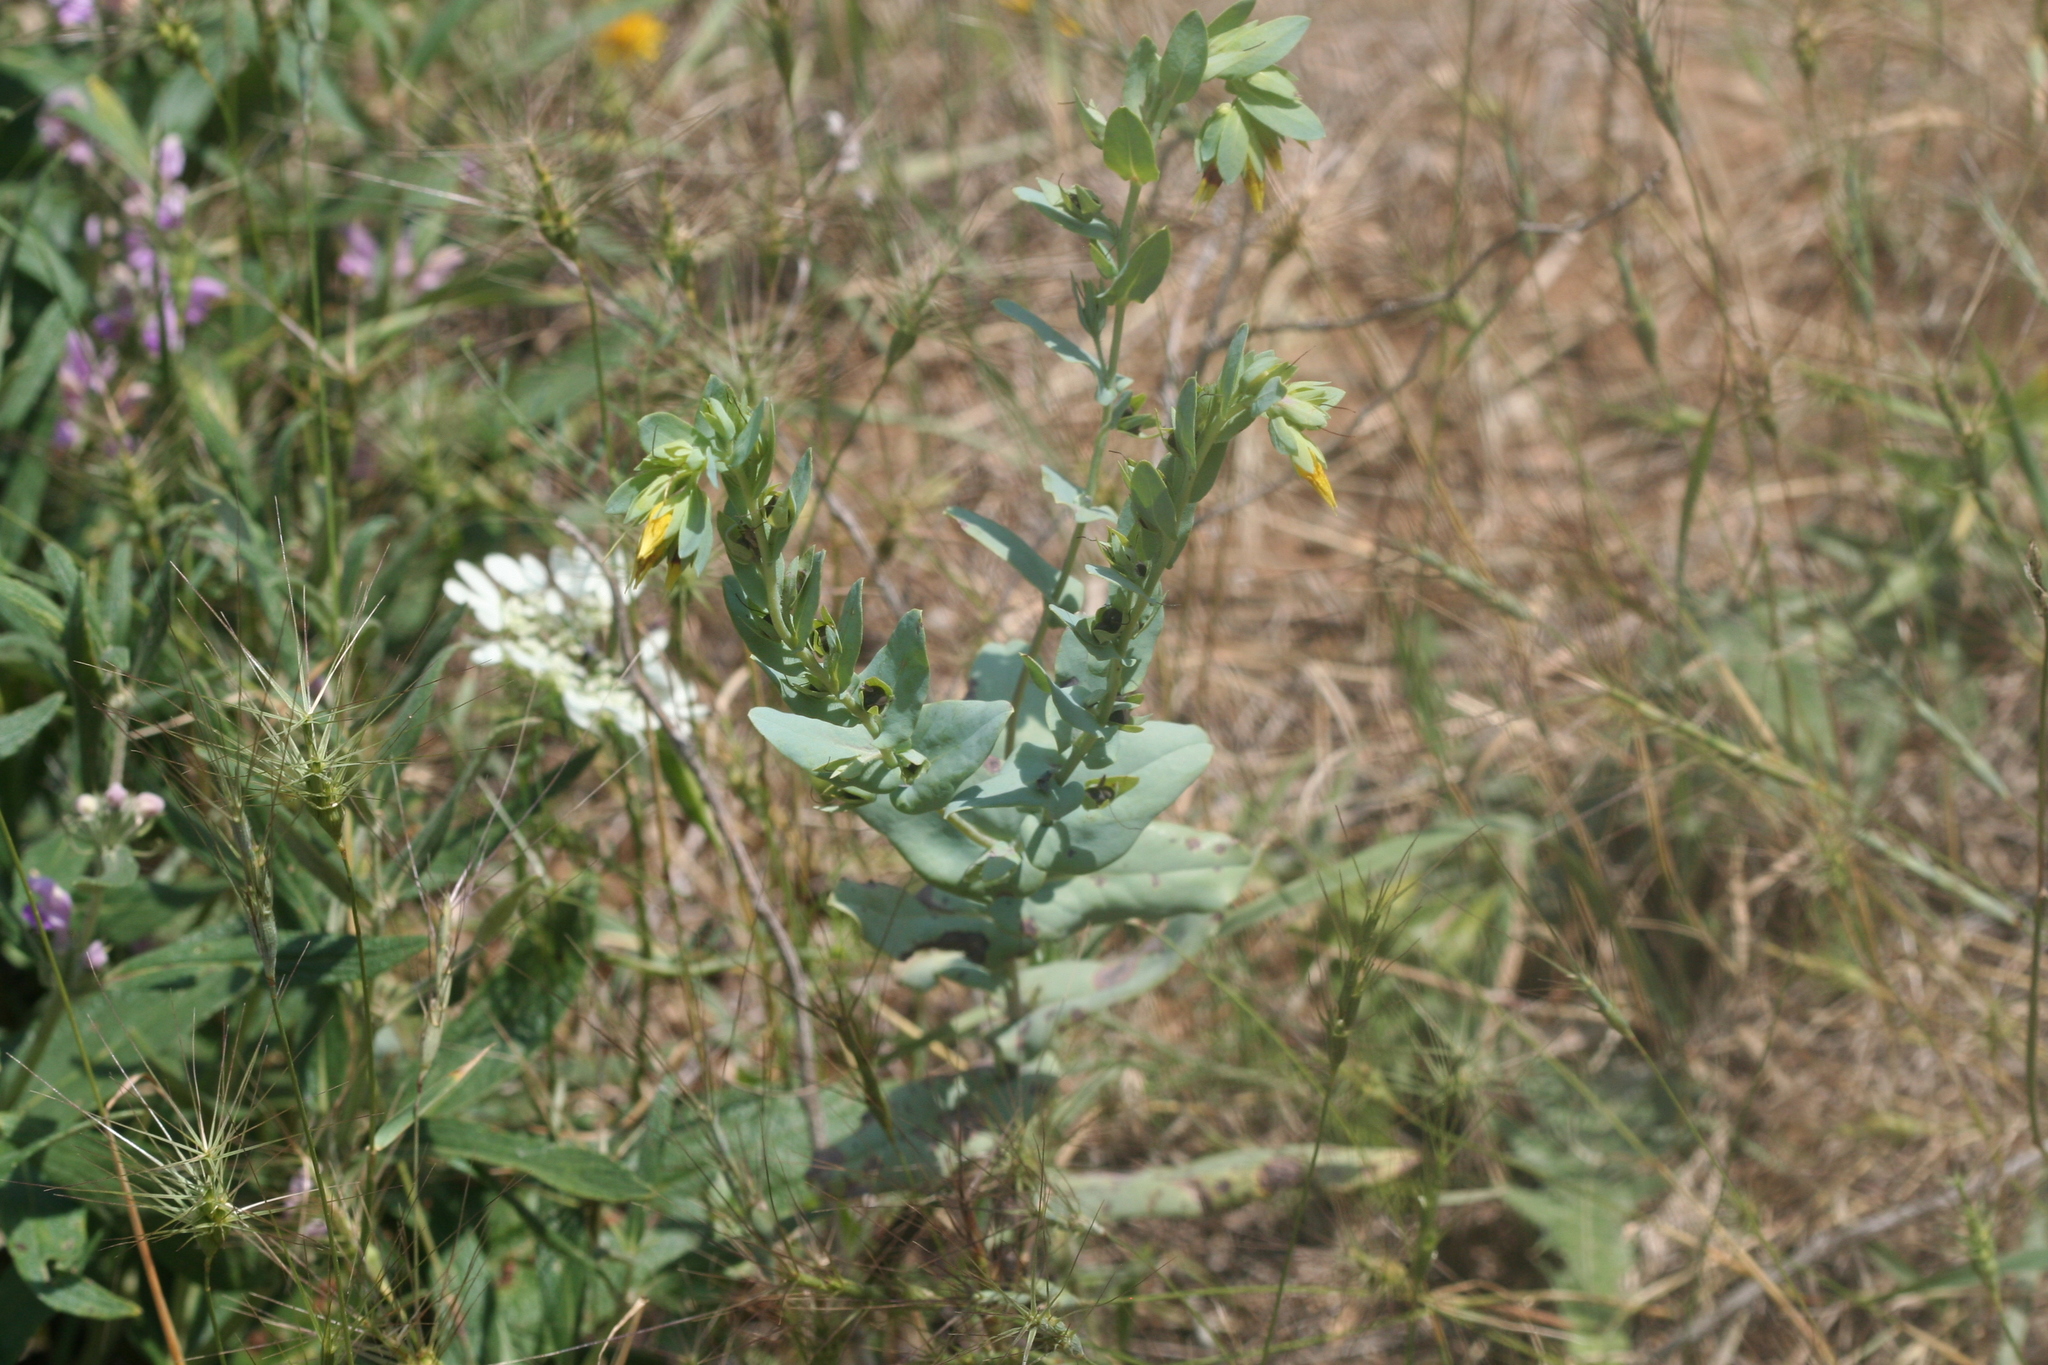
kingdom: Plantae
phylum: Tracheophyta
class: Magnoliopsida
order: Boraginales
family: Boraginaceae
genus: Cerinthe
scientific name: Cerinthe minor
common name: Lesser honeywort
